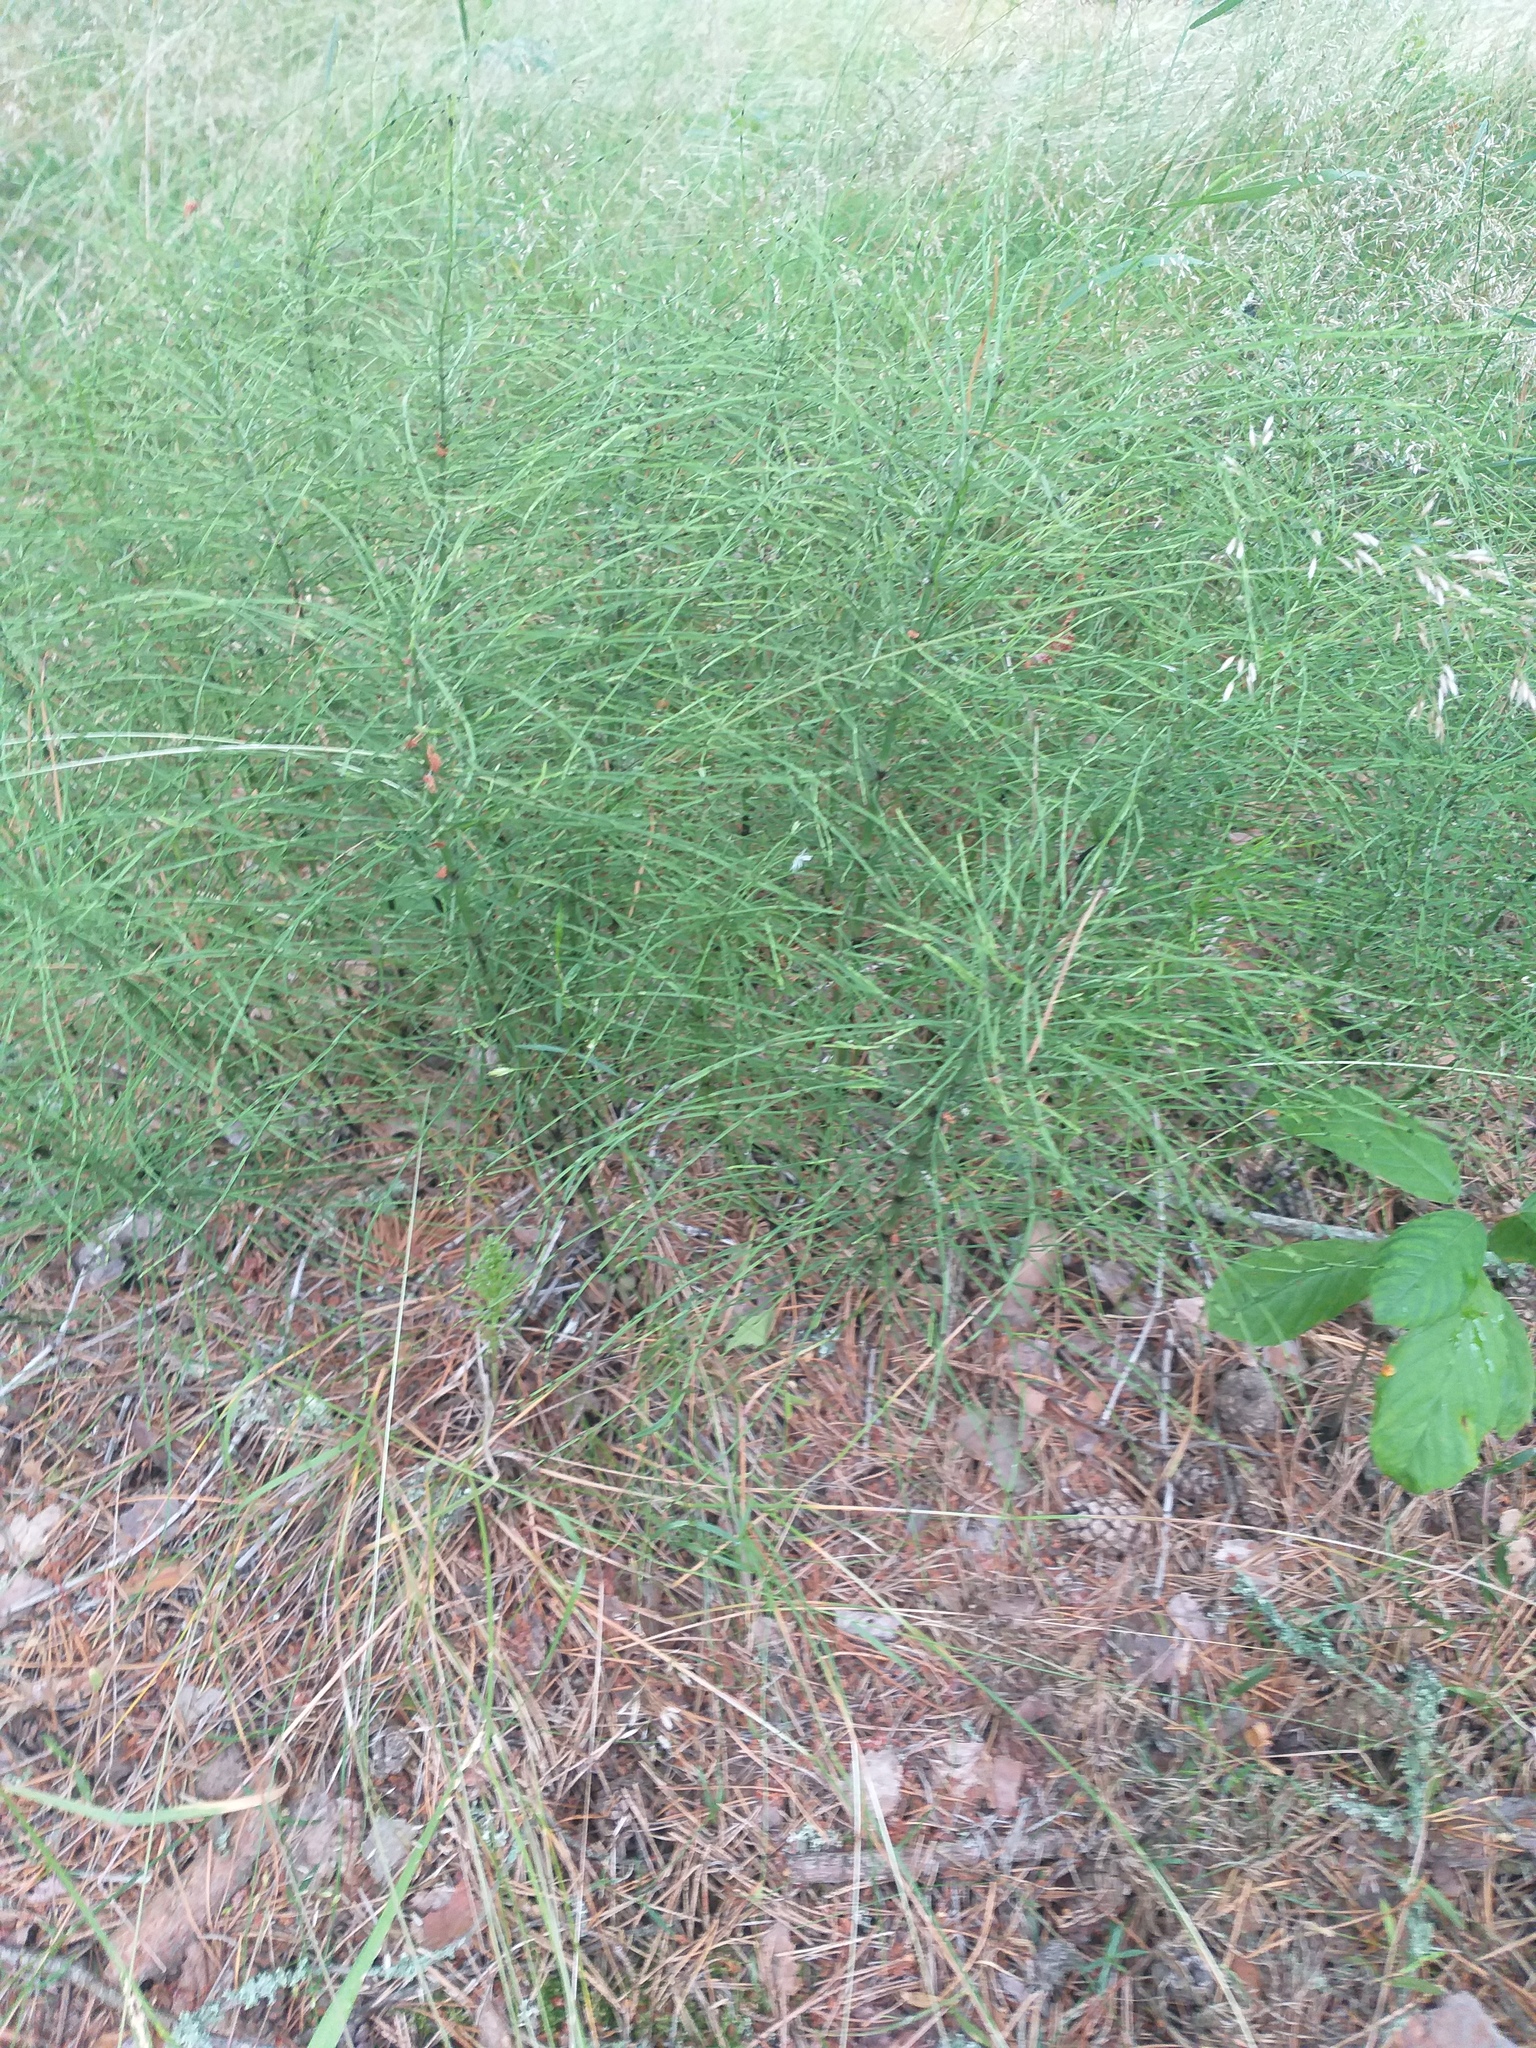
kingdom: Plantae
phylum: Tracheophyta
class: Polypodiopsida
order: Equisetales
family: Equisetaceae
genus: Equisetum
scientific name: Equisetum pratense
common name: Meadow horsetail
